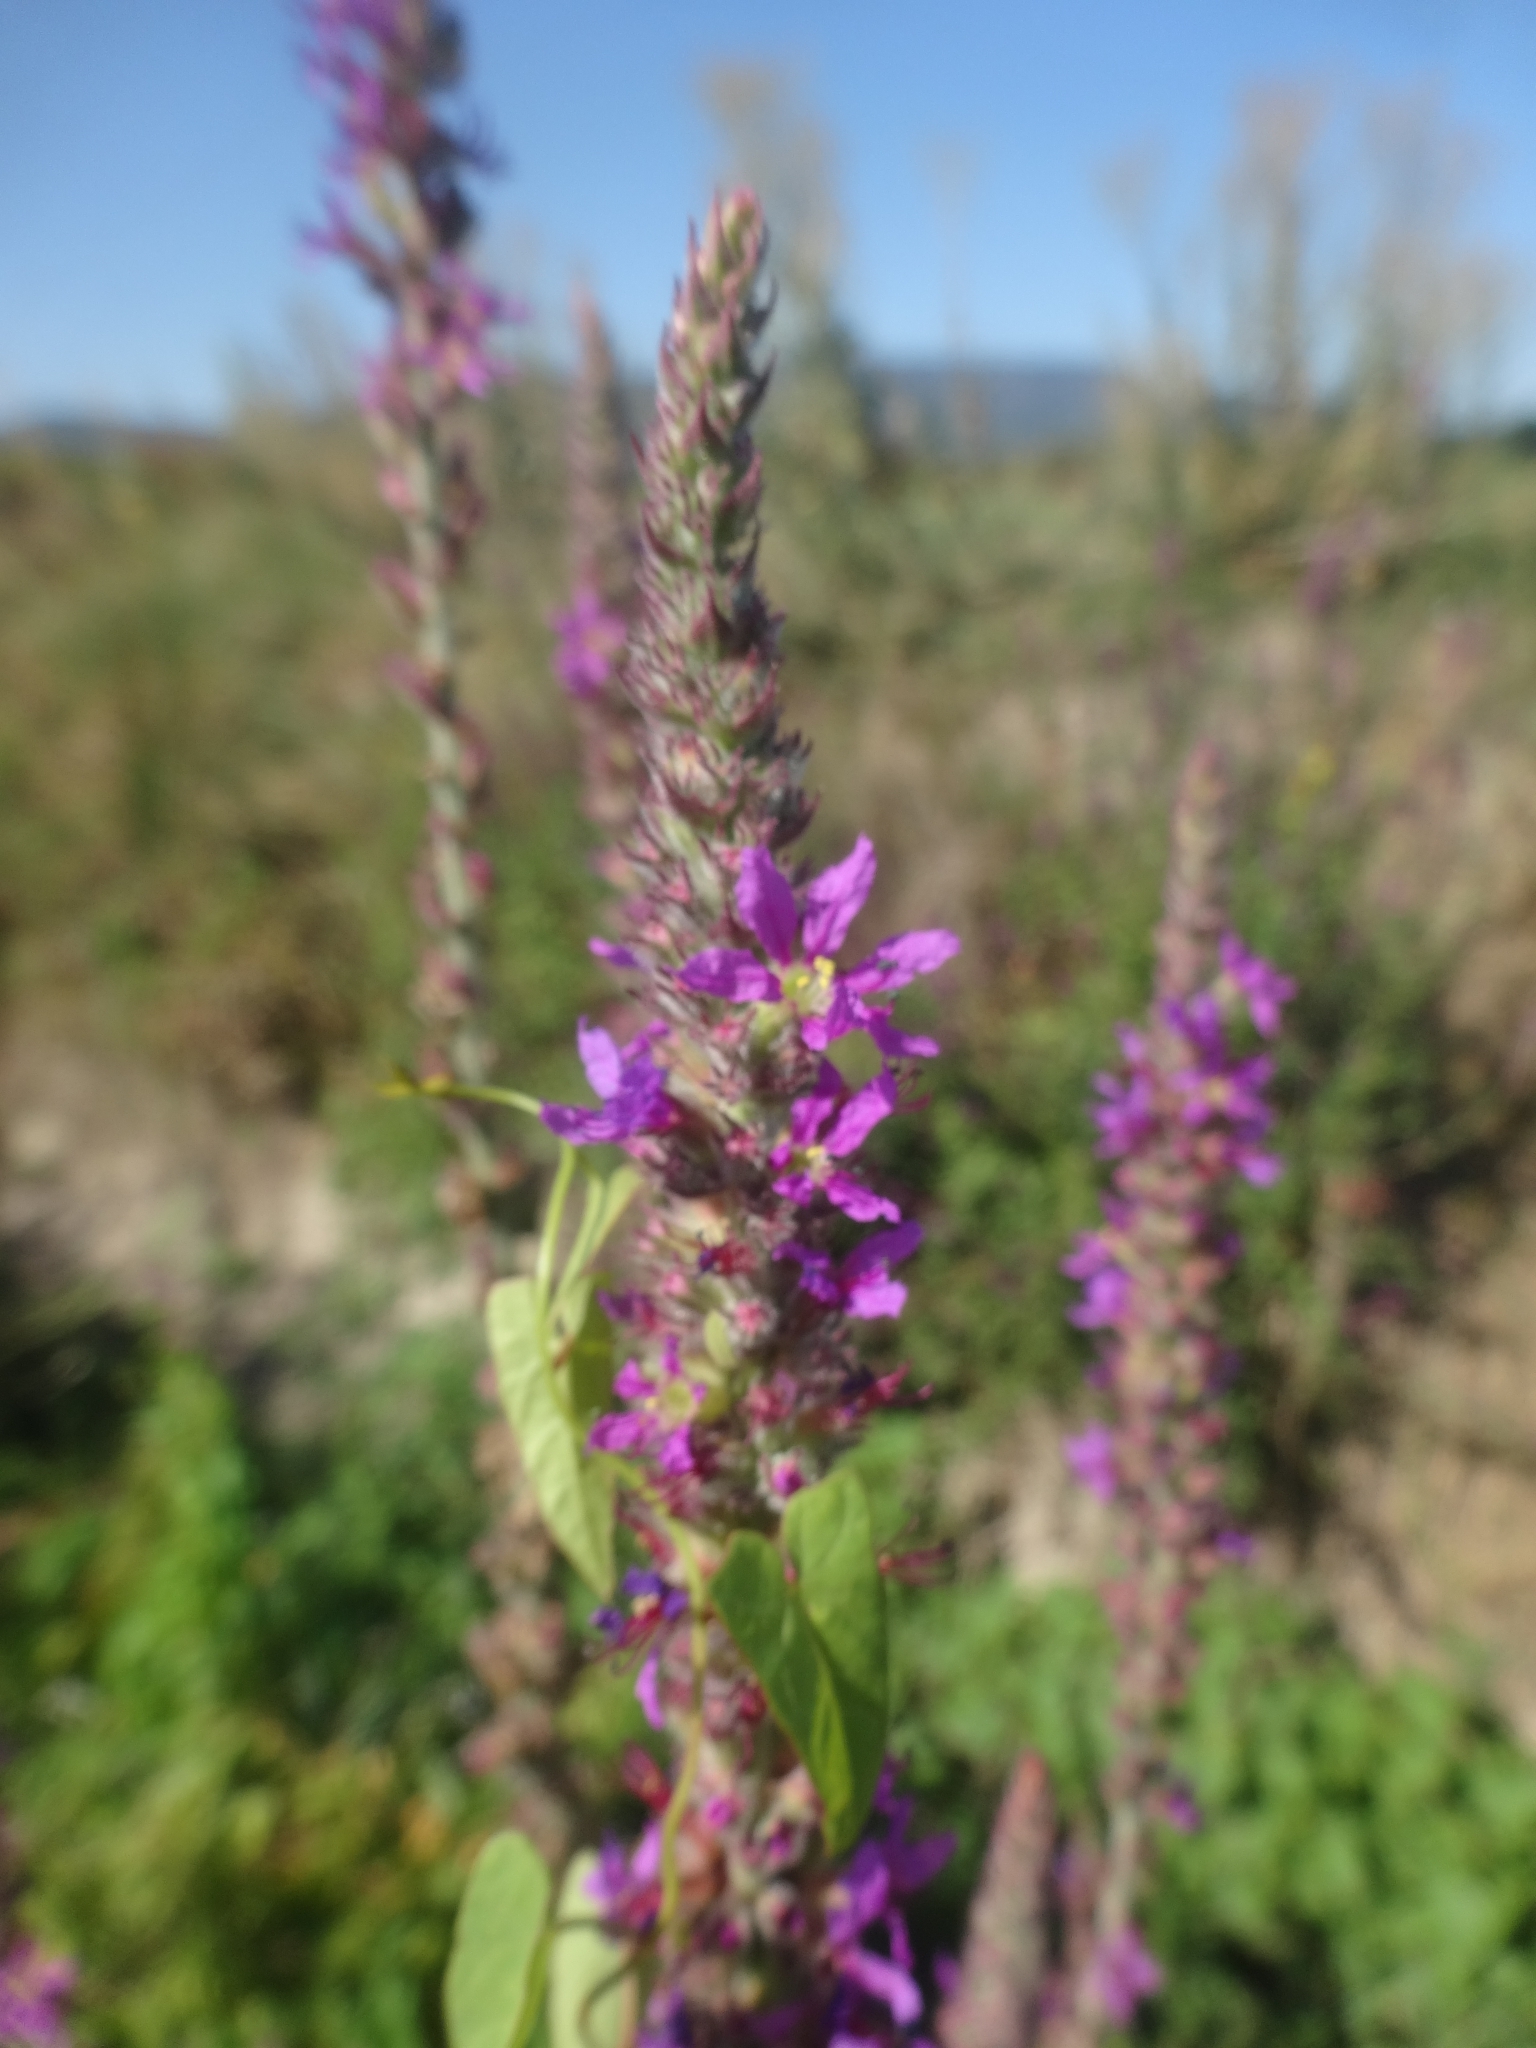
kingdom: Plantae
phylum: Tracheophyta
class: Magnoliopsida
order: Myrtales
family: Lythraceae
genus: Lythrum
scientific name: Lythrum salicaria
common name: Purple loosestrife
